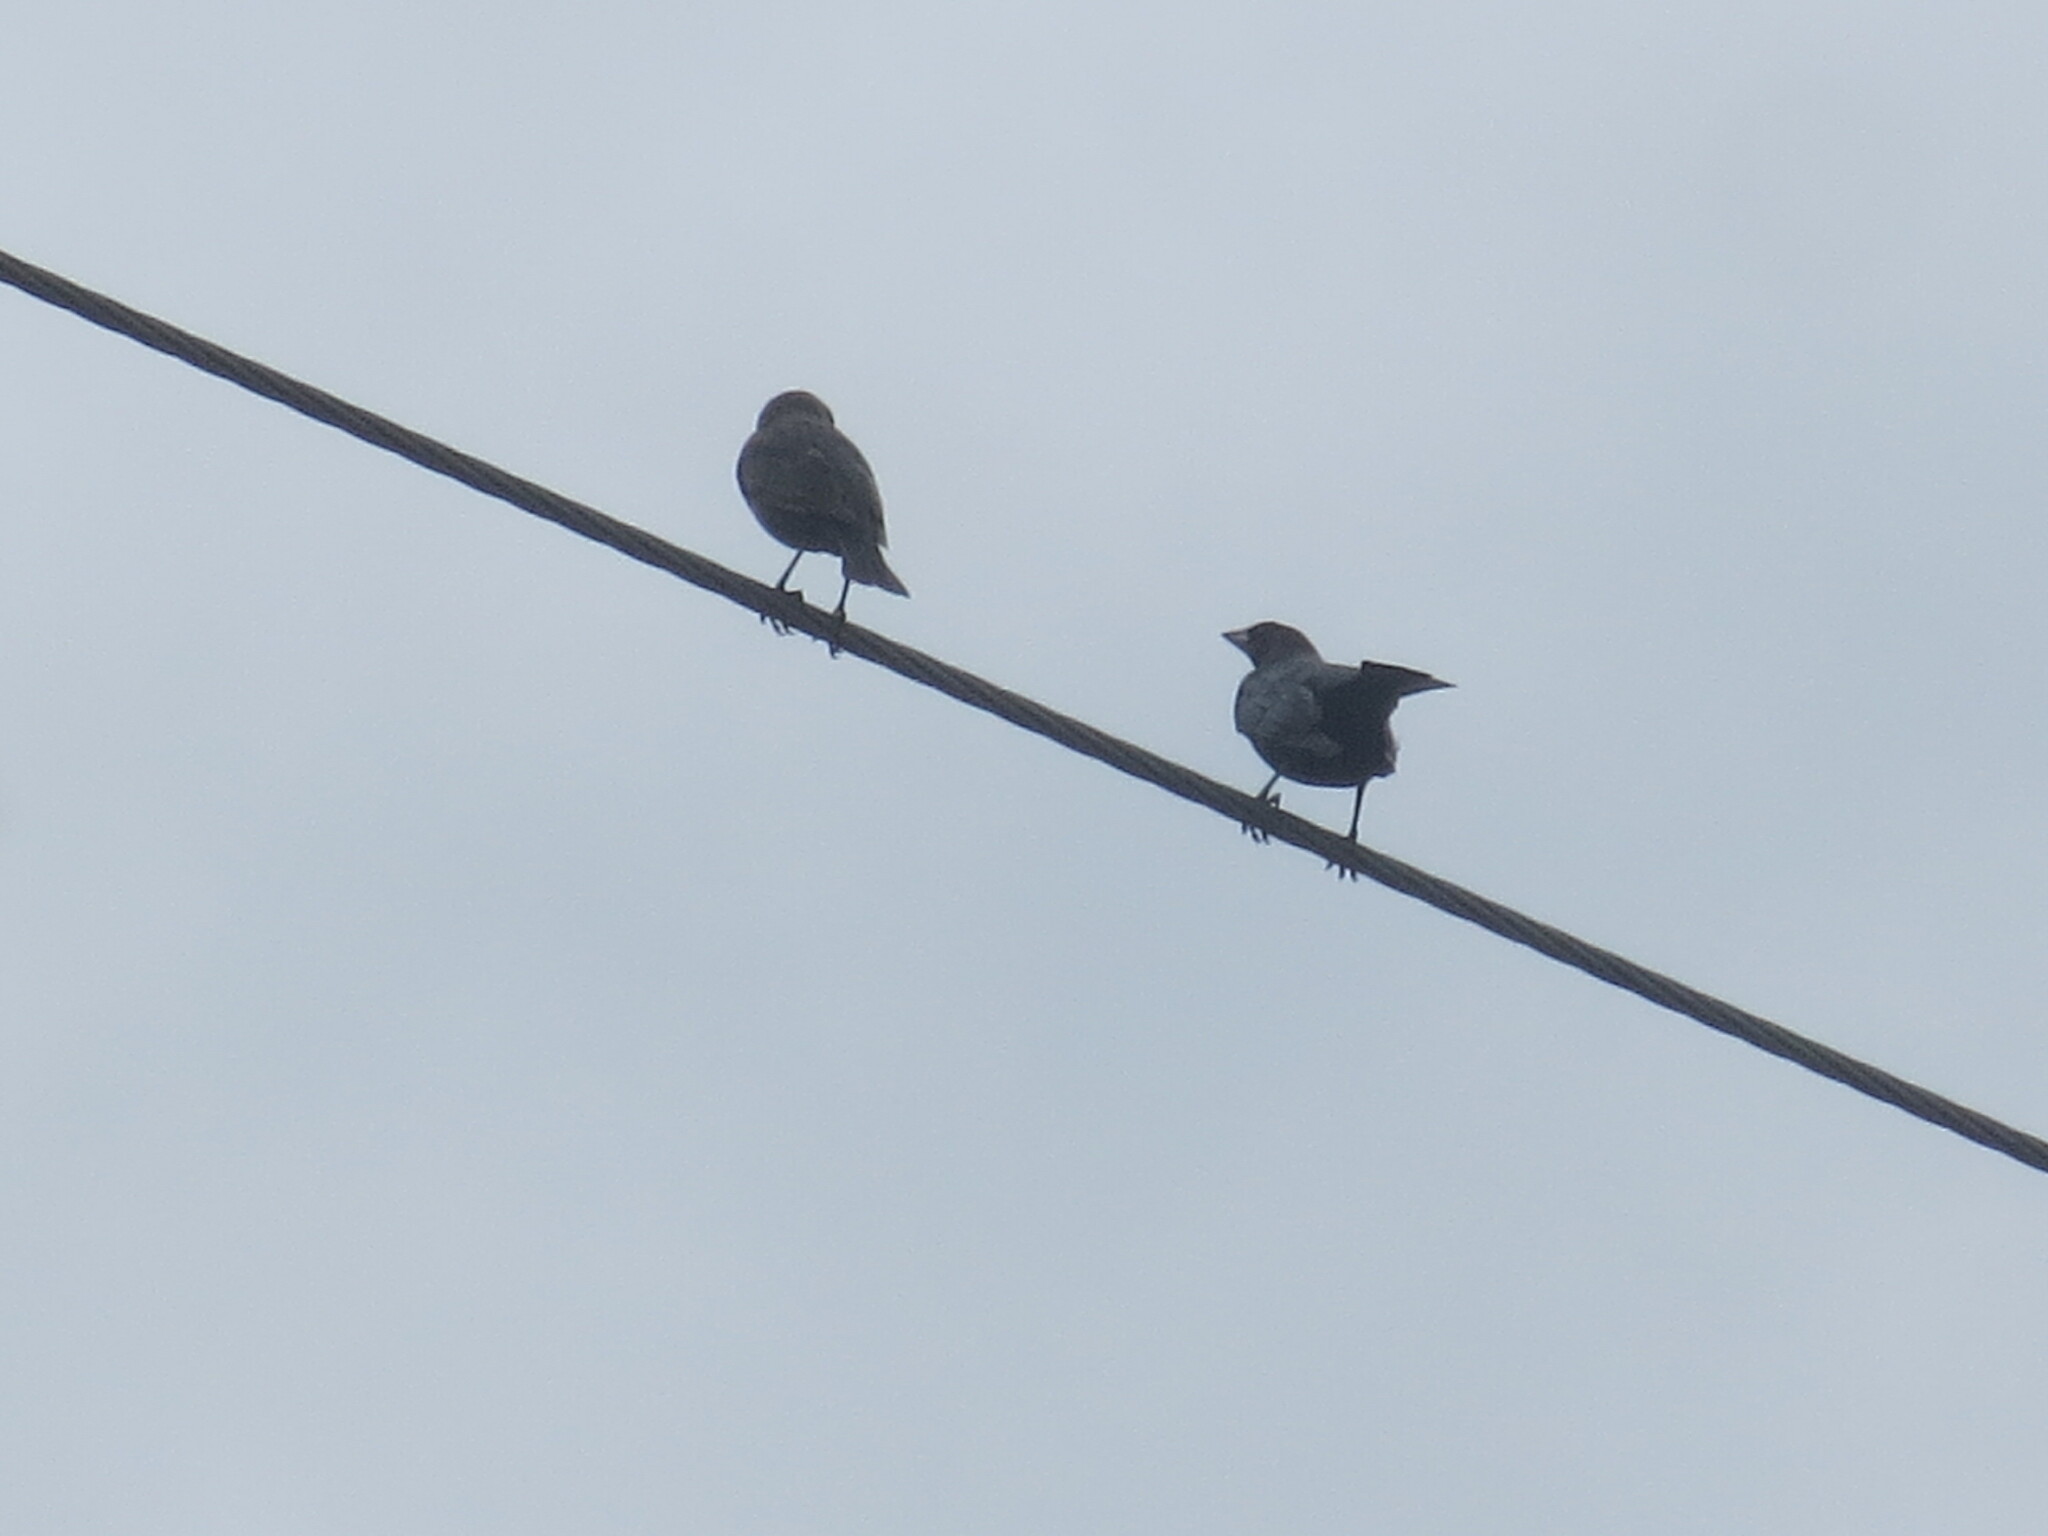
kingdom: Animalia
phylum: Chordata
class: Aves
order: Passeriformes
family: Icteridae
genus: Molothrus
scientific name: Molothrus ater
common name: Brown-headed cowbird
